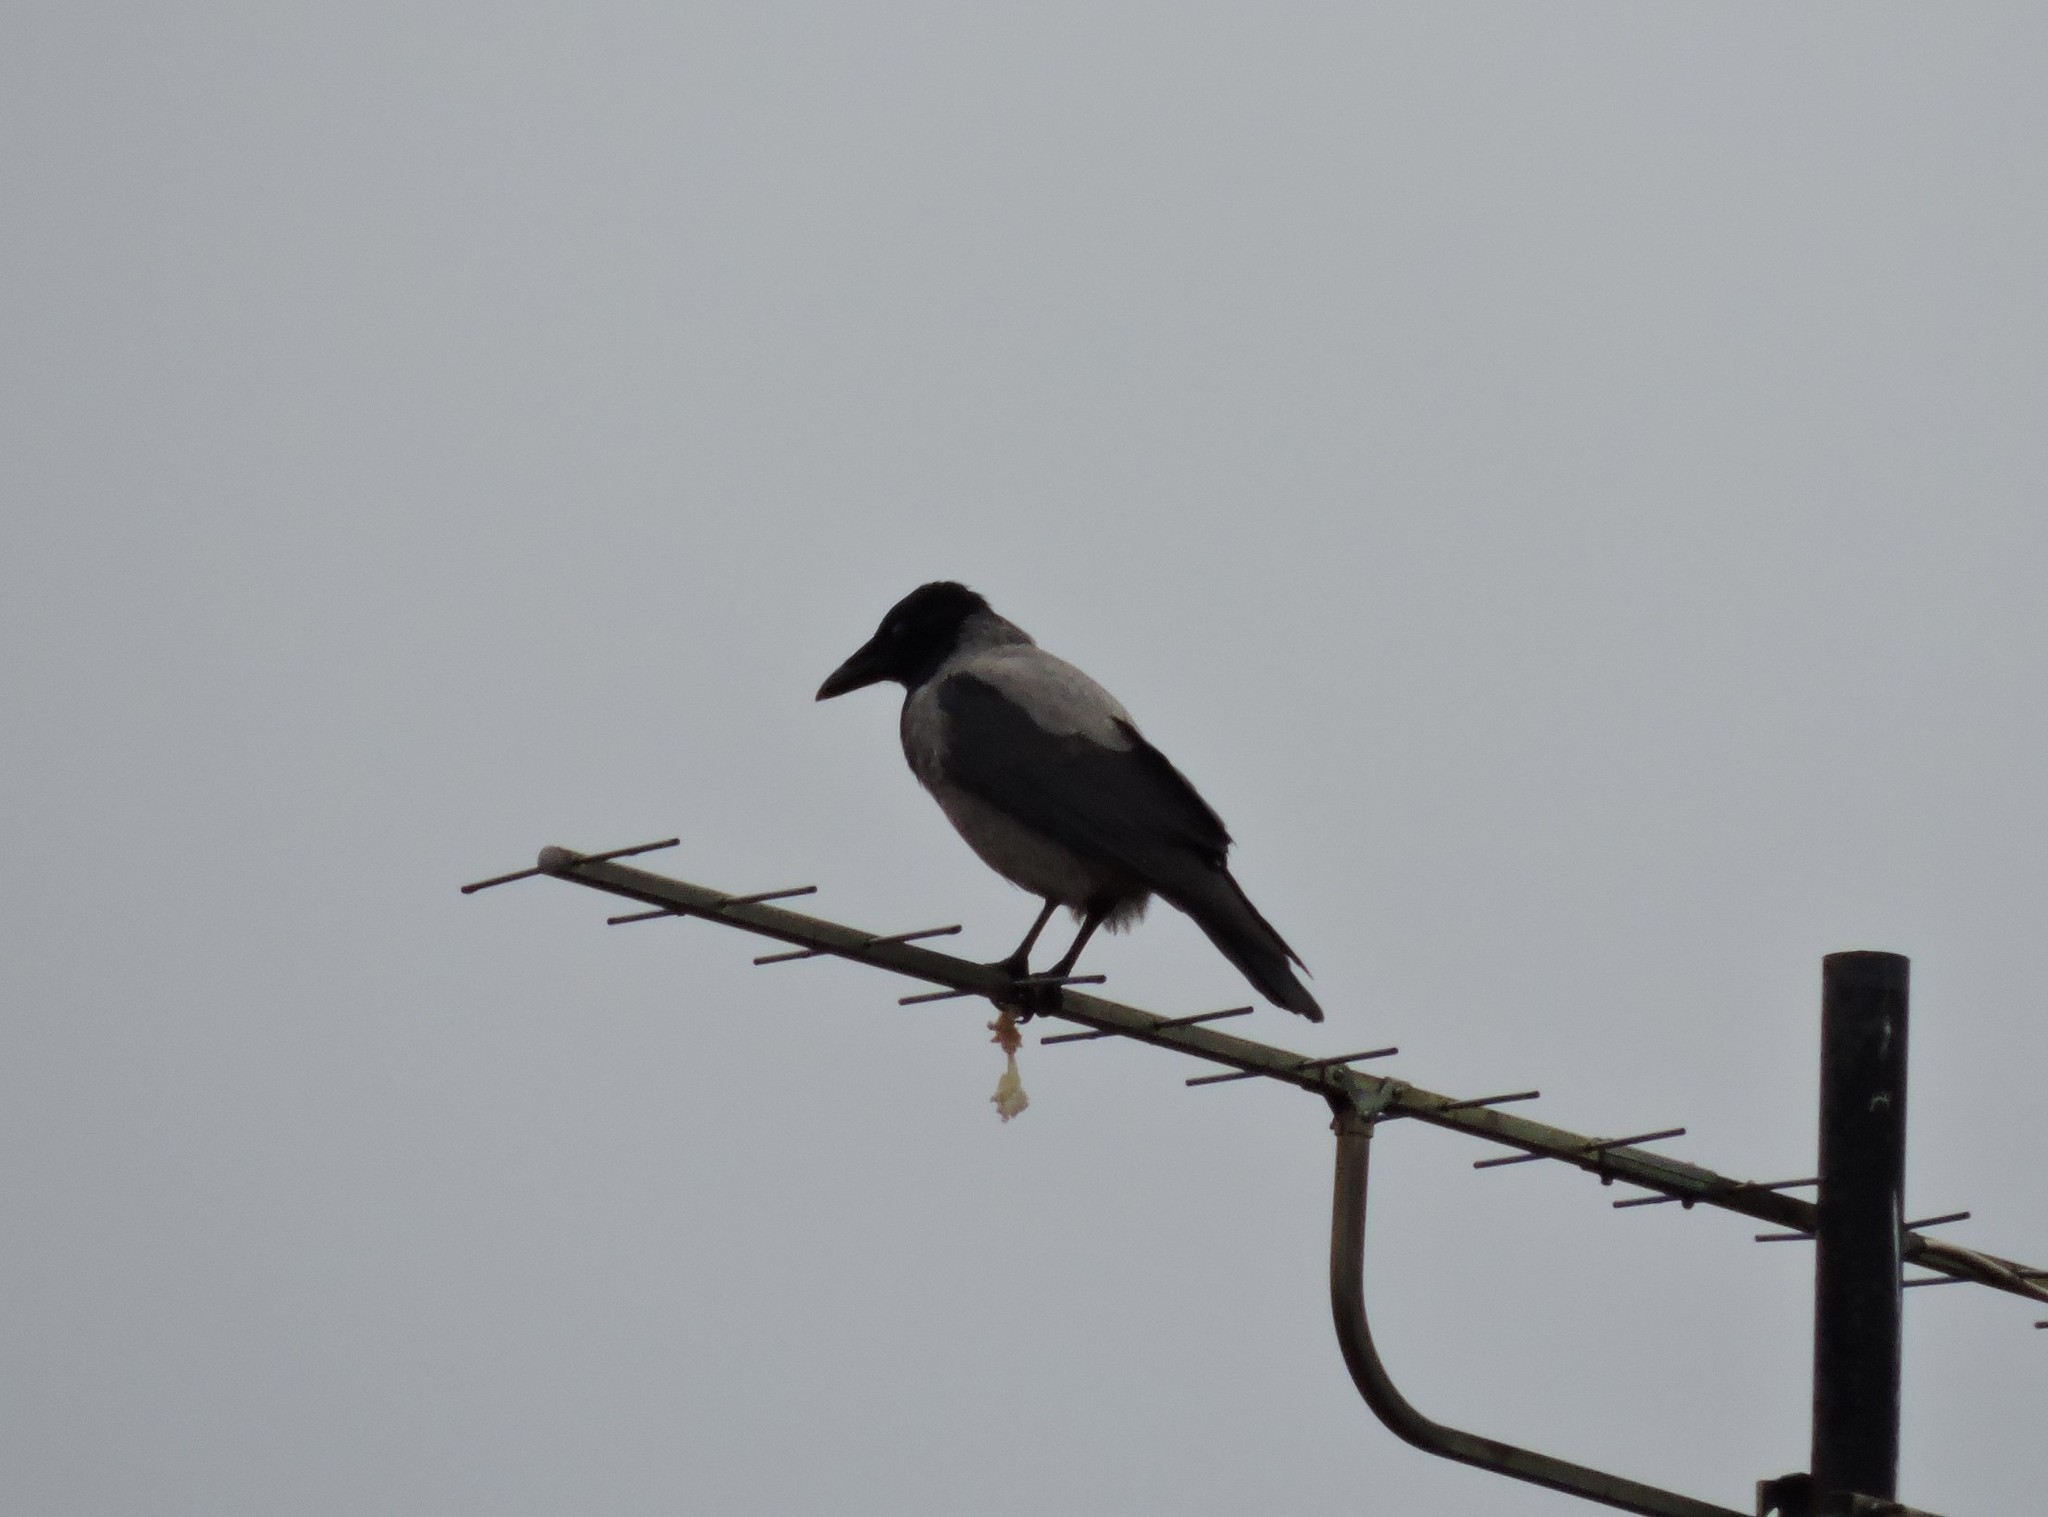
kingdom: Animalia
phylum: Chordata
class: Aves
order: Passeriformes
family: Corvidae
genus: Corvus
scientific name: Corvus cornix
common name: Hooded crow
